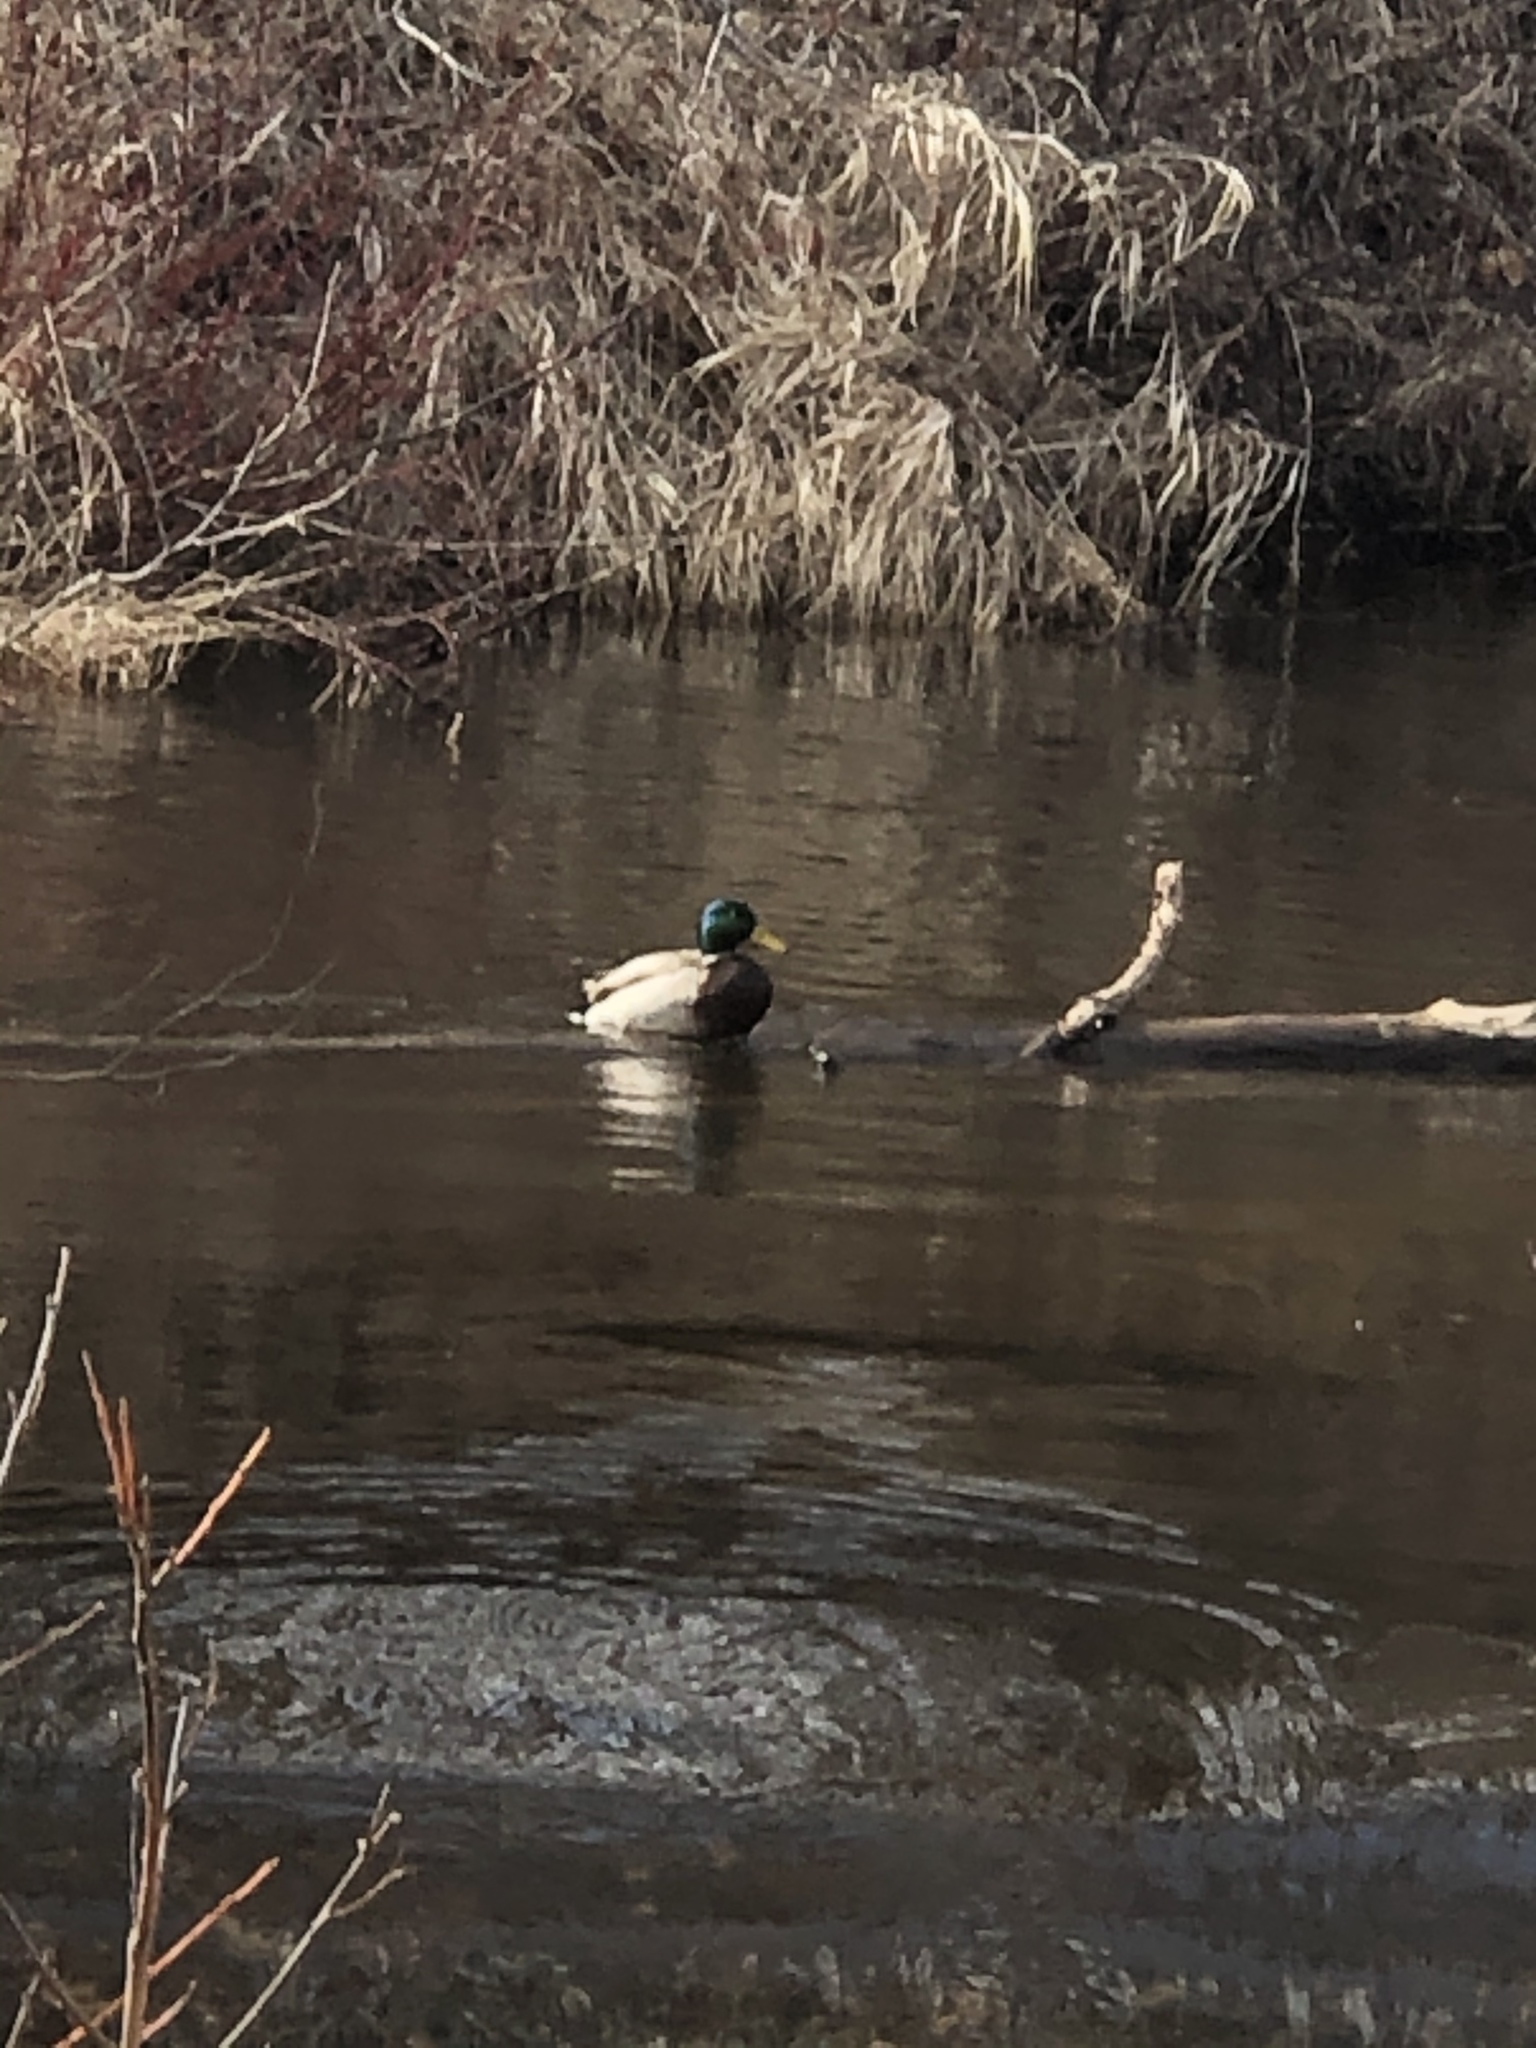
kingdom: Animalia
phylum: Chordata
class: Aves
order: Anseriformes
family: Anatidae
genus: Anas
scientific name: Anas platyrhynchos
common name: Mallard
